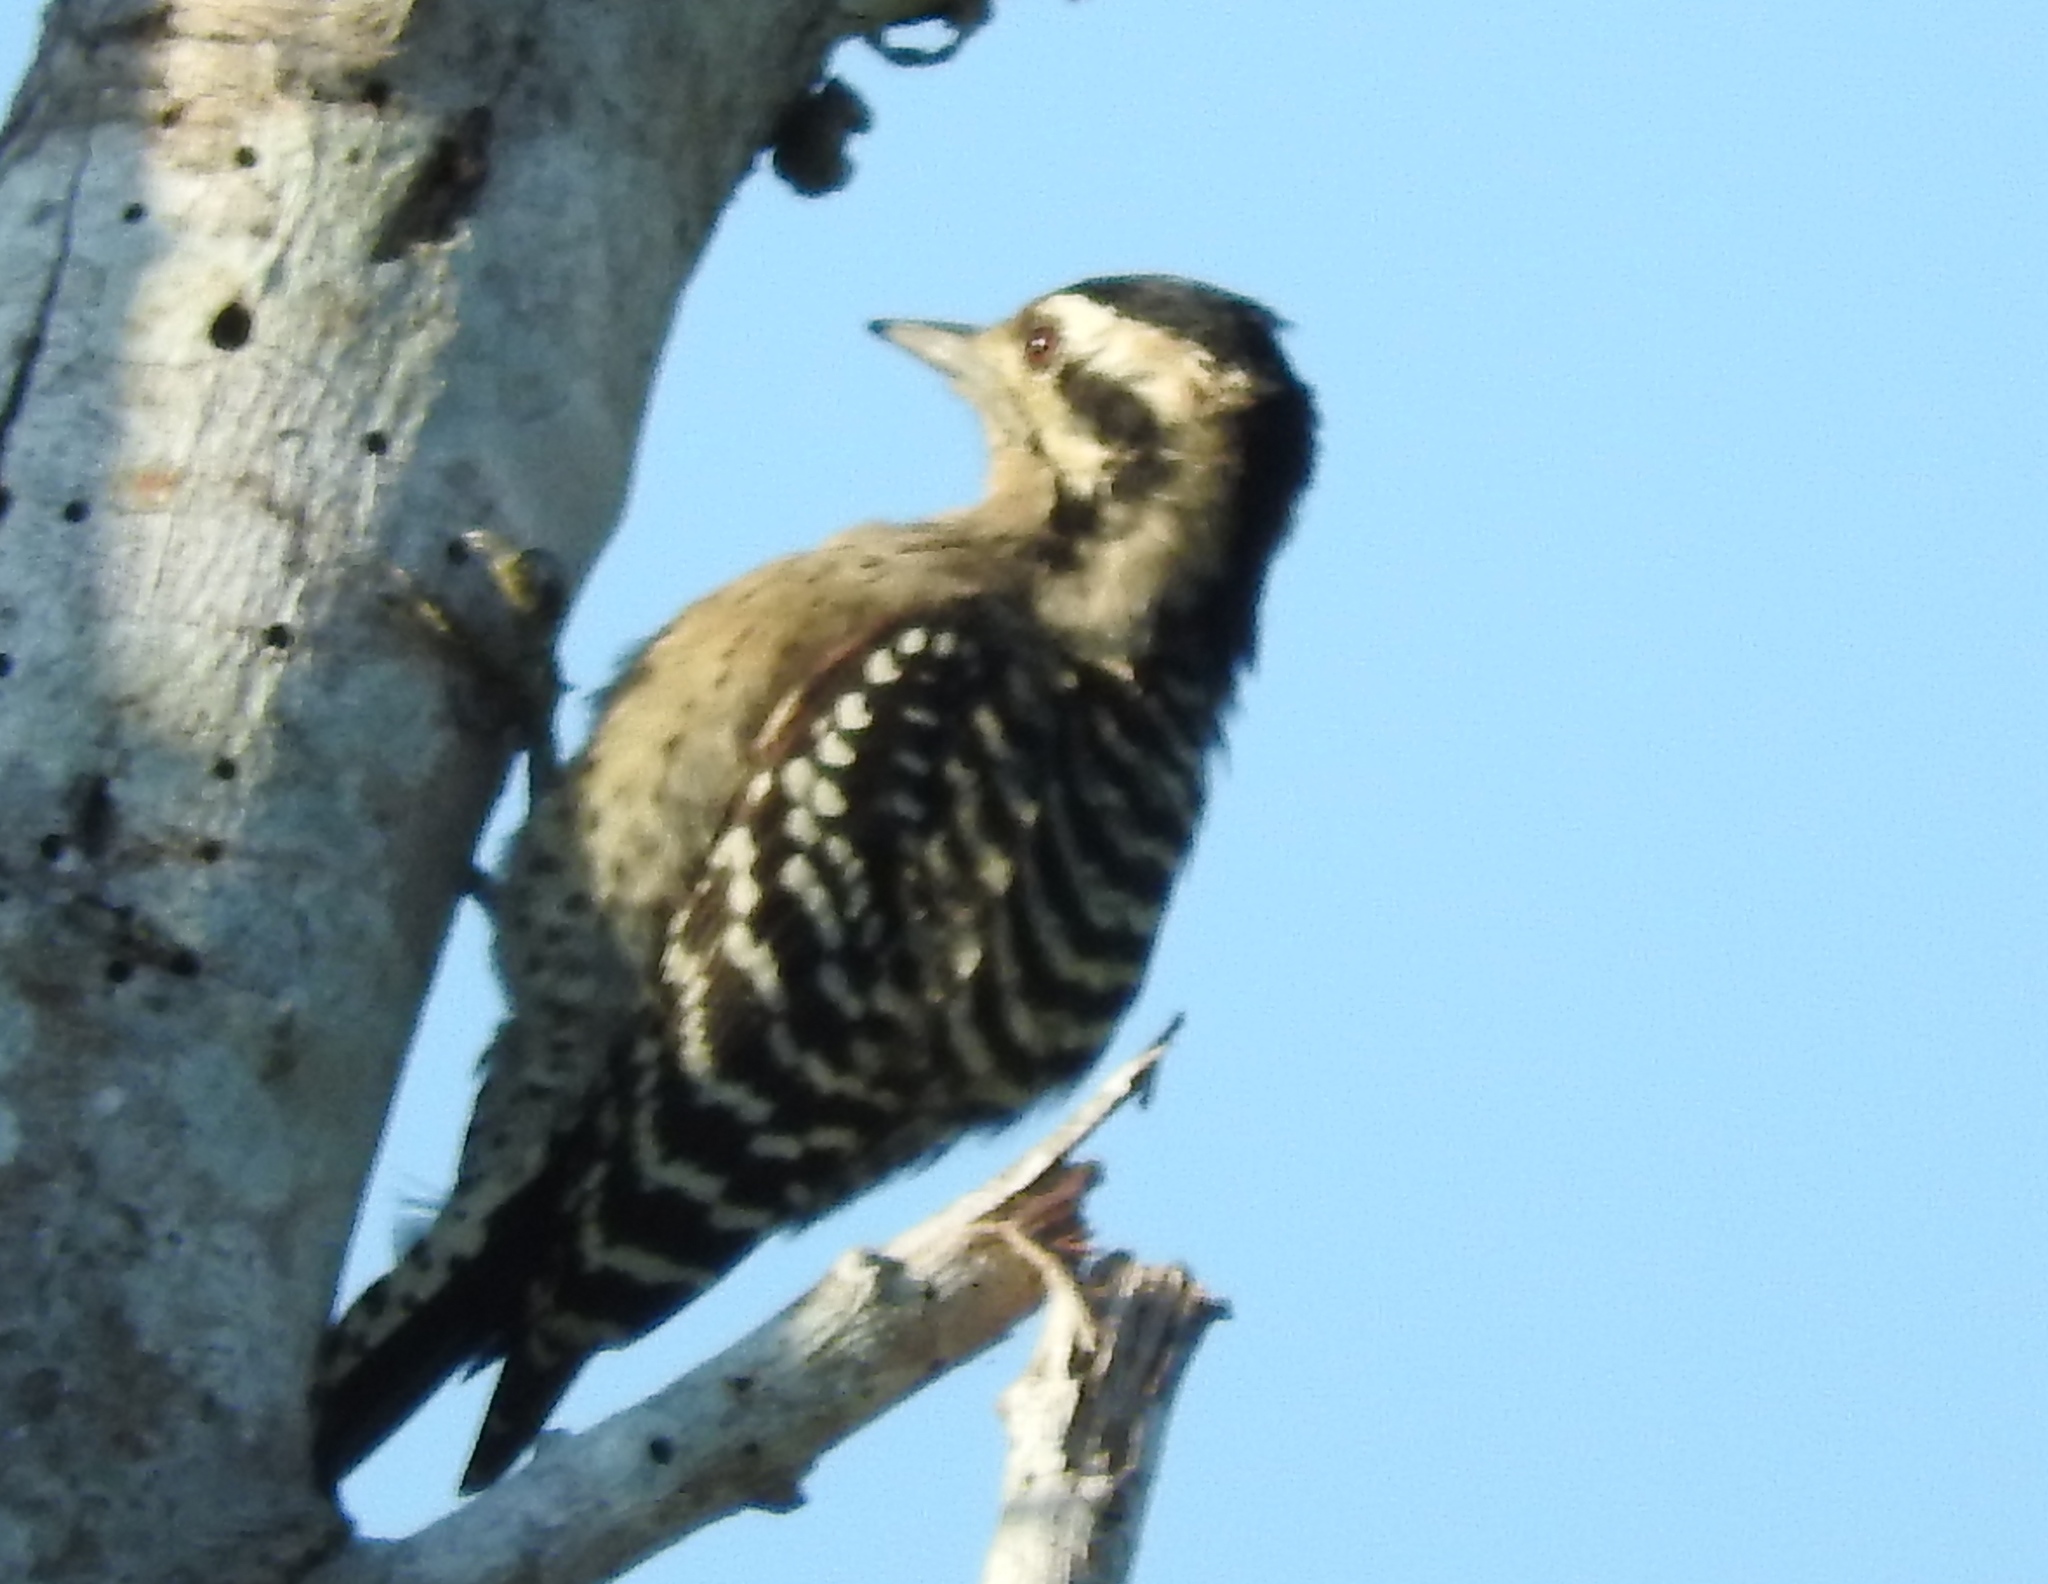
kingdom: Animalia
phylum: Chordata
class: Aves
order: Piciformes
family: Picidae
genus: Dryobates
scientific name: Dryobates scalaris
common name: Ladder-backed woodpecker
